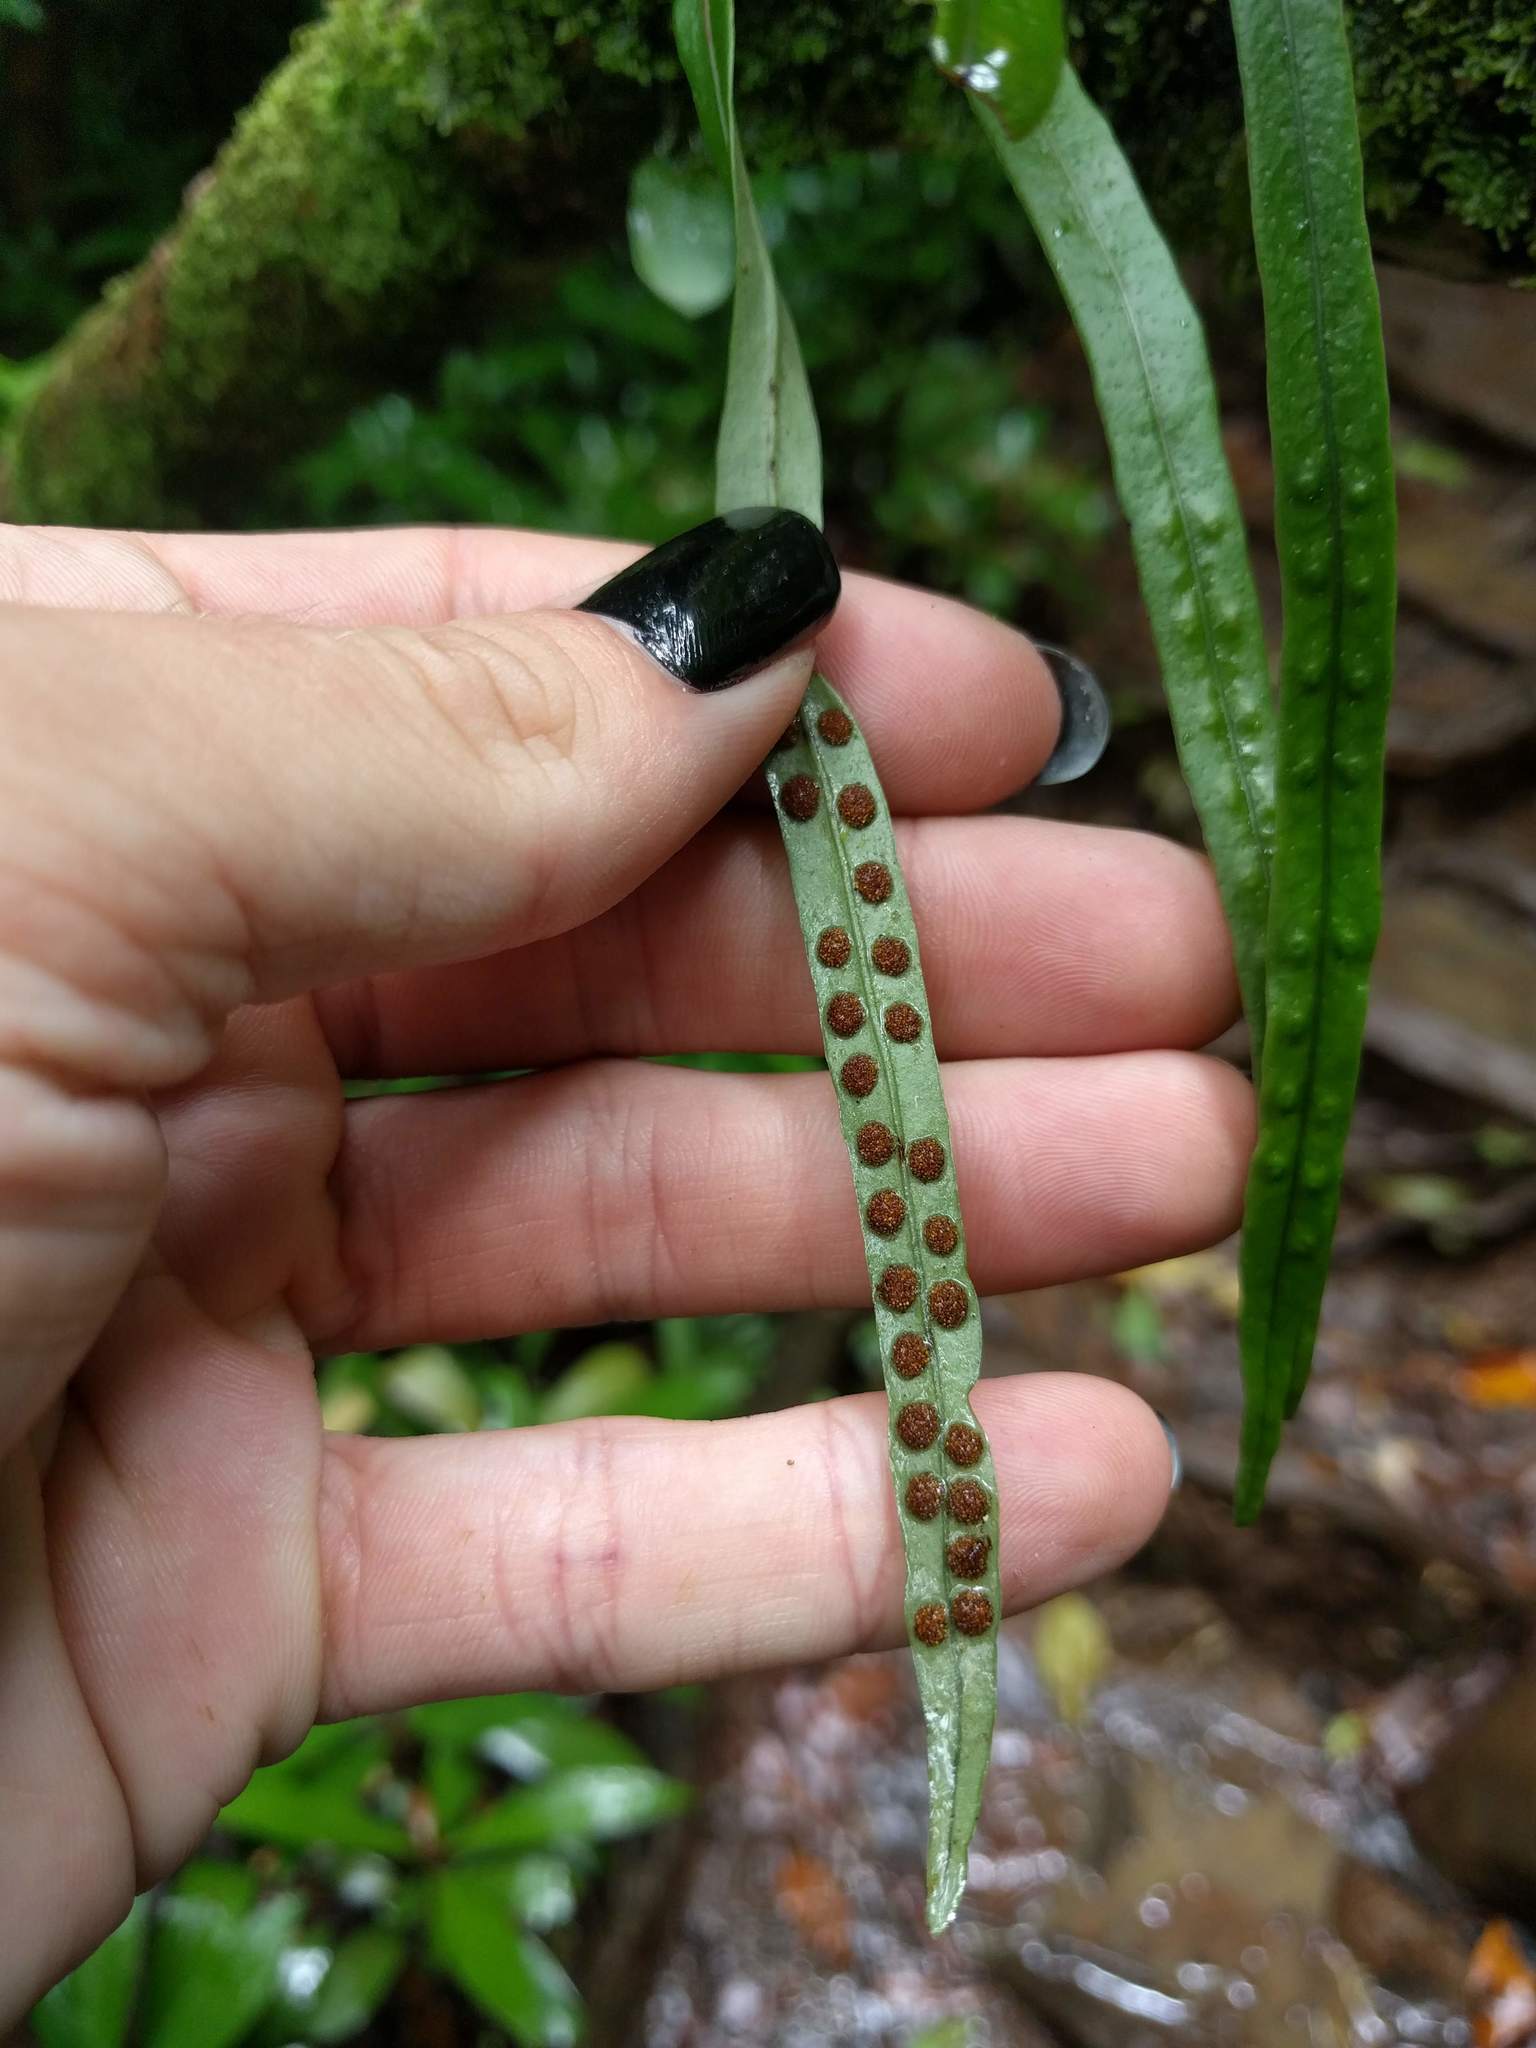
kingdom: Plantae
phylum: Tracheophyta
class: Polypodiopsida
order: Polypodiales
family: Polypodiaceae
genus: Lepisorus
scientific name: Lepisorus thunbergianus
